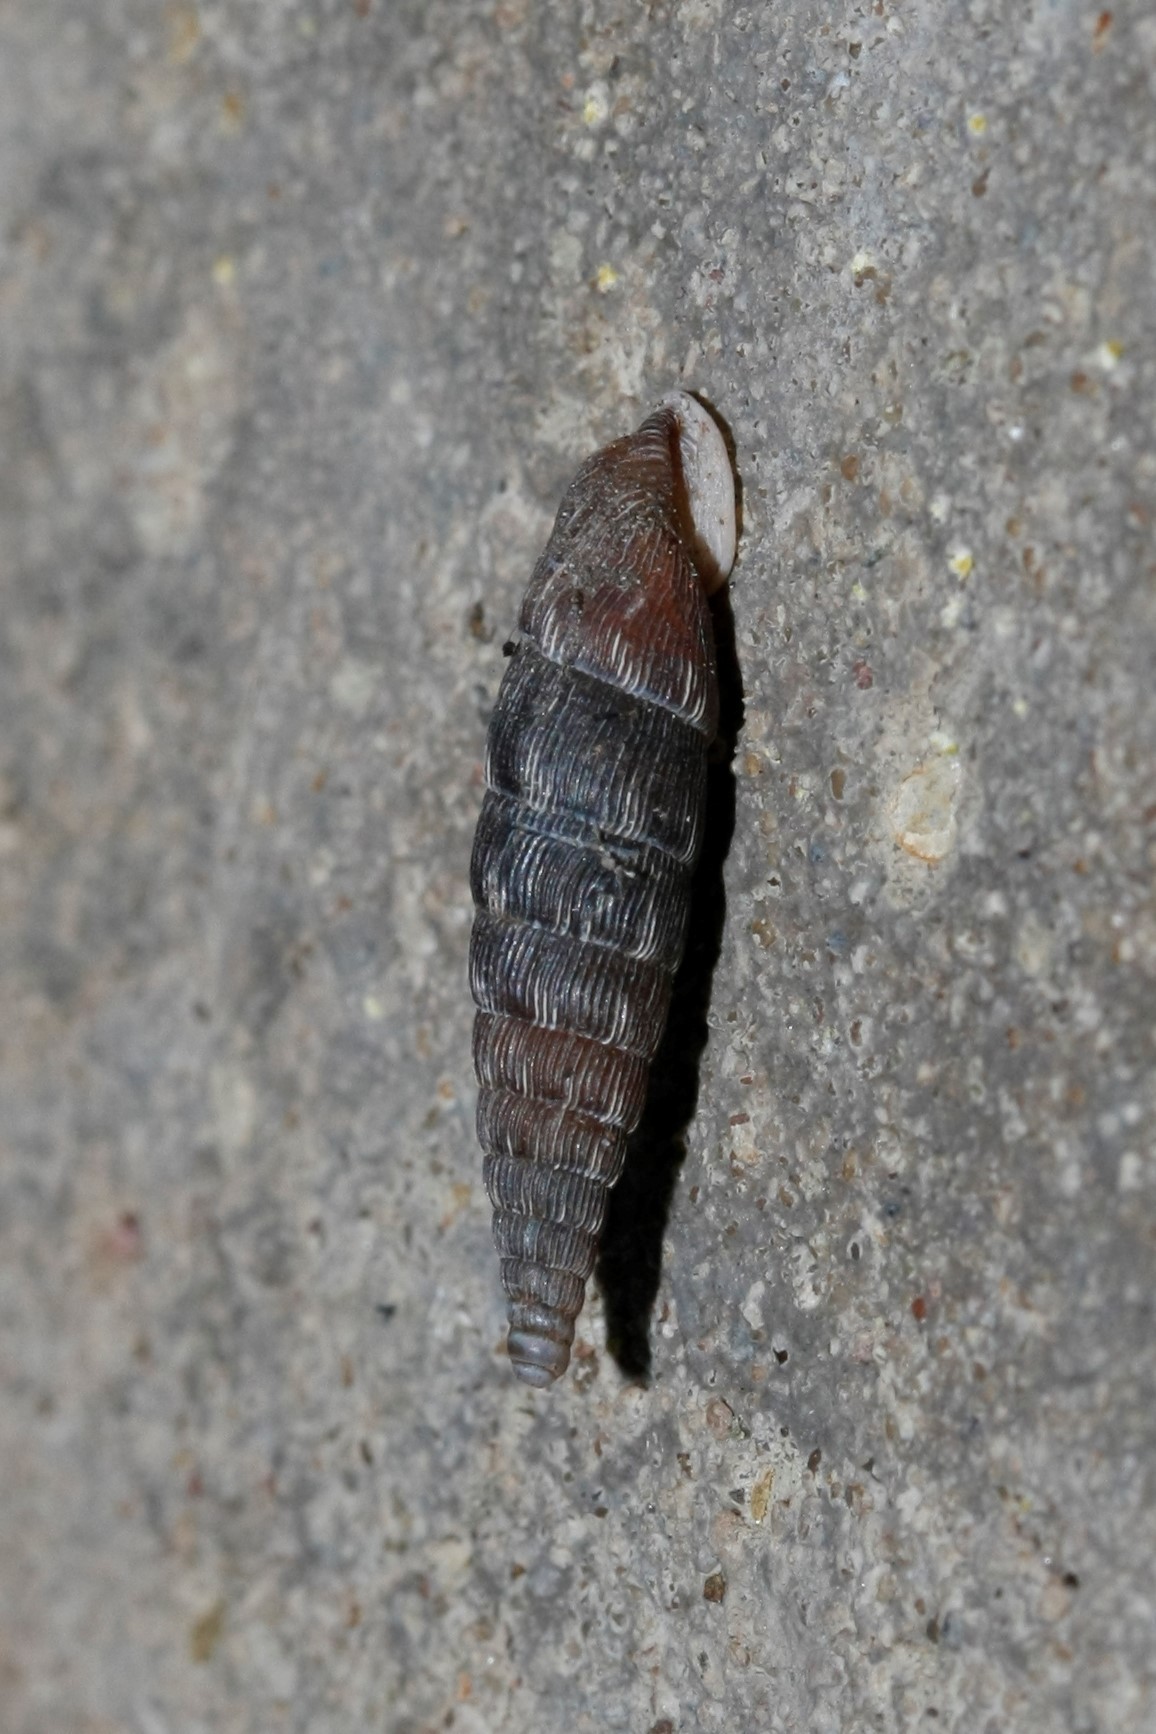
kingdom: Animalia
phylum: Mollusca
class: Gastropoda
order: Stylommatophora
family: Clausiliidae
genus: Alinda
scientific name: Alinda biplicata
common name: Thames door snail
